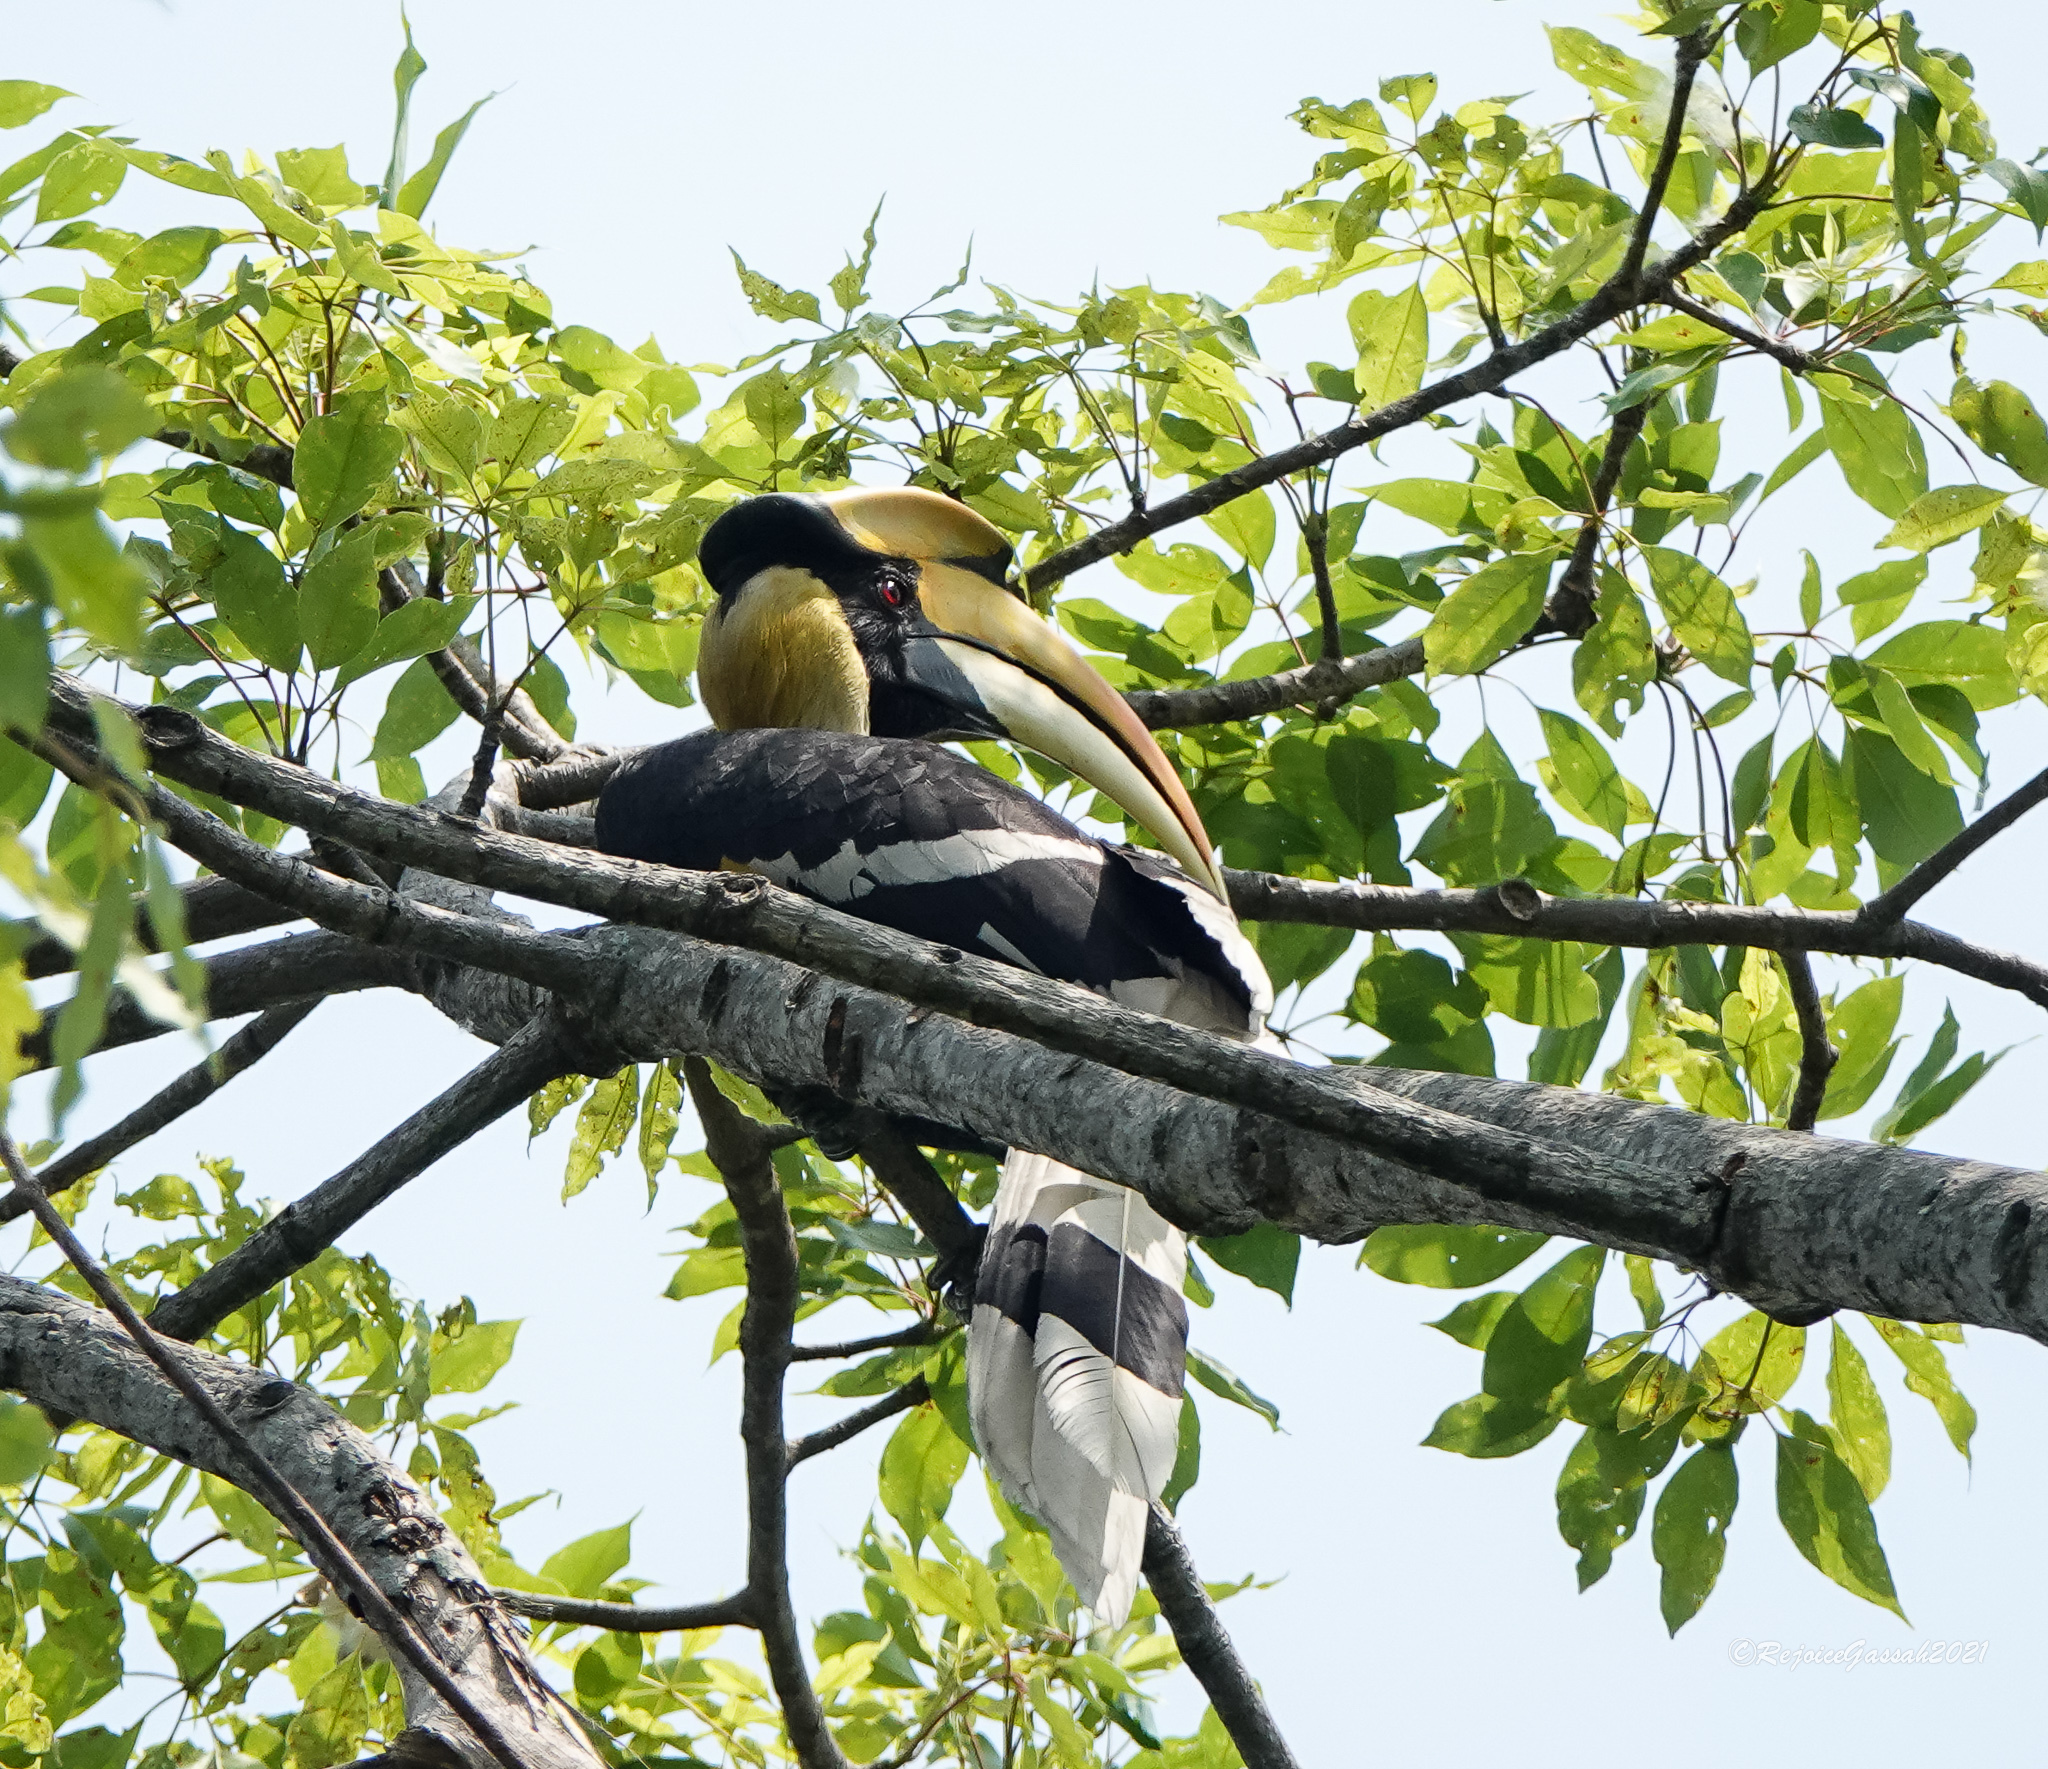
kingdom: Animalia
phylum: Chordata
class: Aves
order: Bucerotiformes
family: Bucerotidae
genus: Buceros
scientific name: Buceros bicornis
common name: Great hornbill
